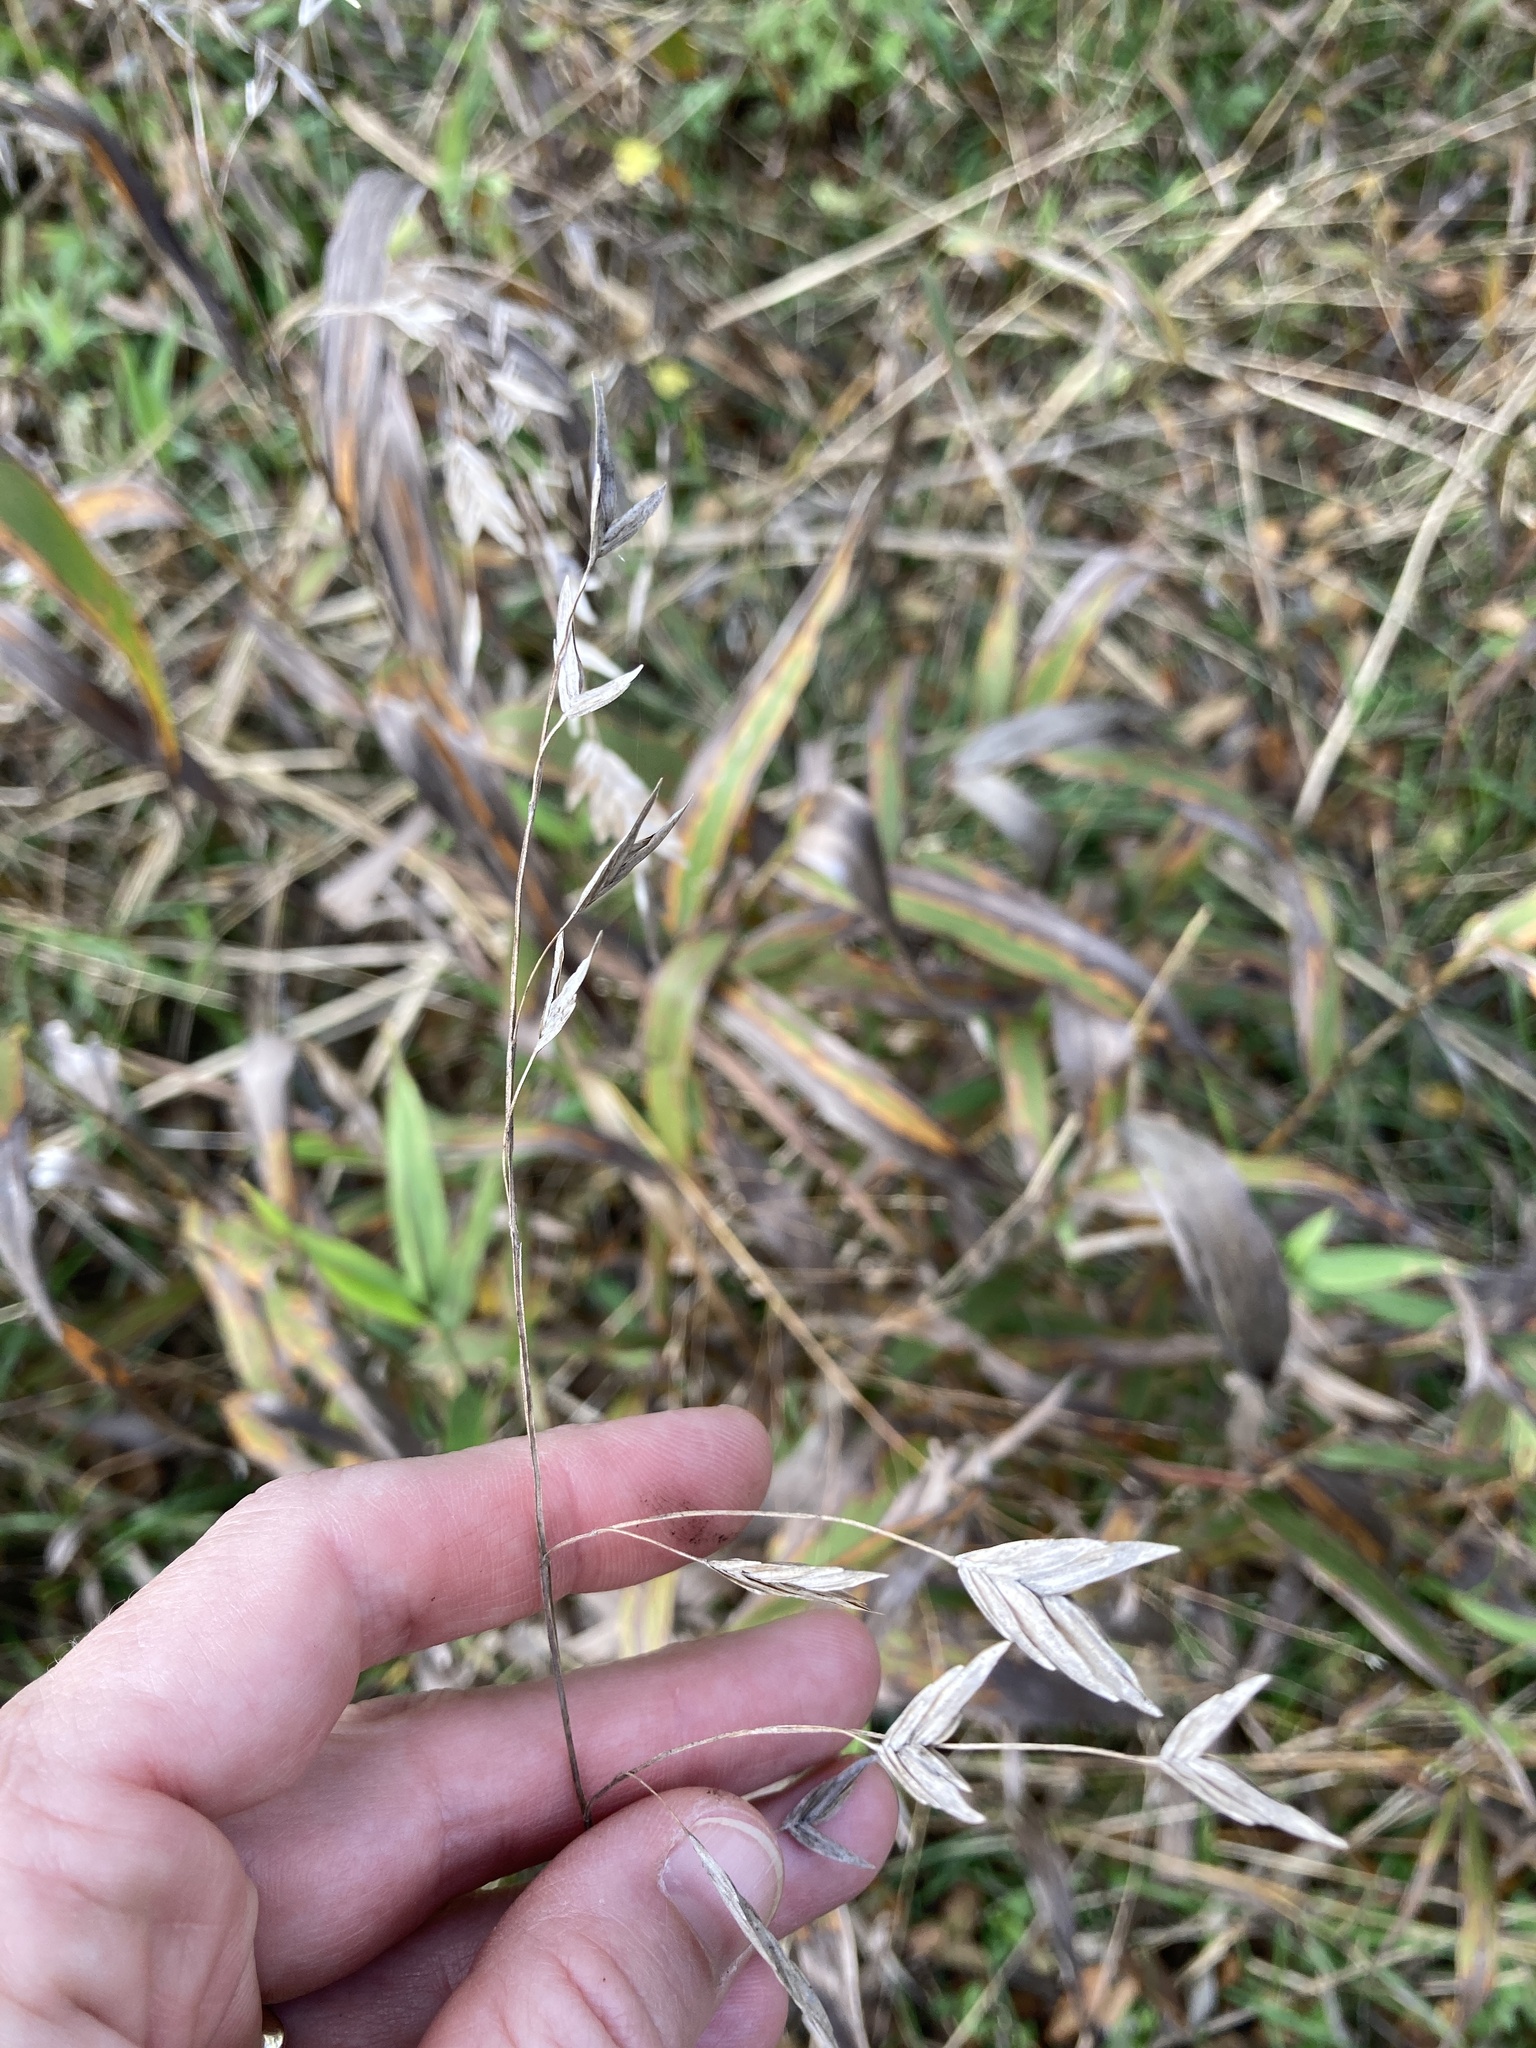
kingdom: Plantae
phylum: Tracheophyta
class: Liliopsida
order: Poales
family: Poaceae
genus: Chasmanthium
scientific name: Chasmanthium latifolium
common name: Broad-leaved chasmanthium
